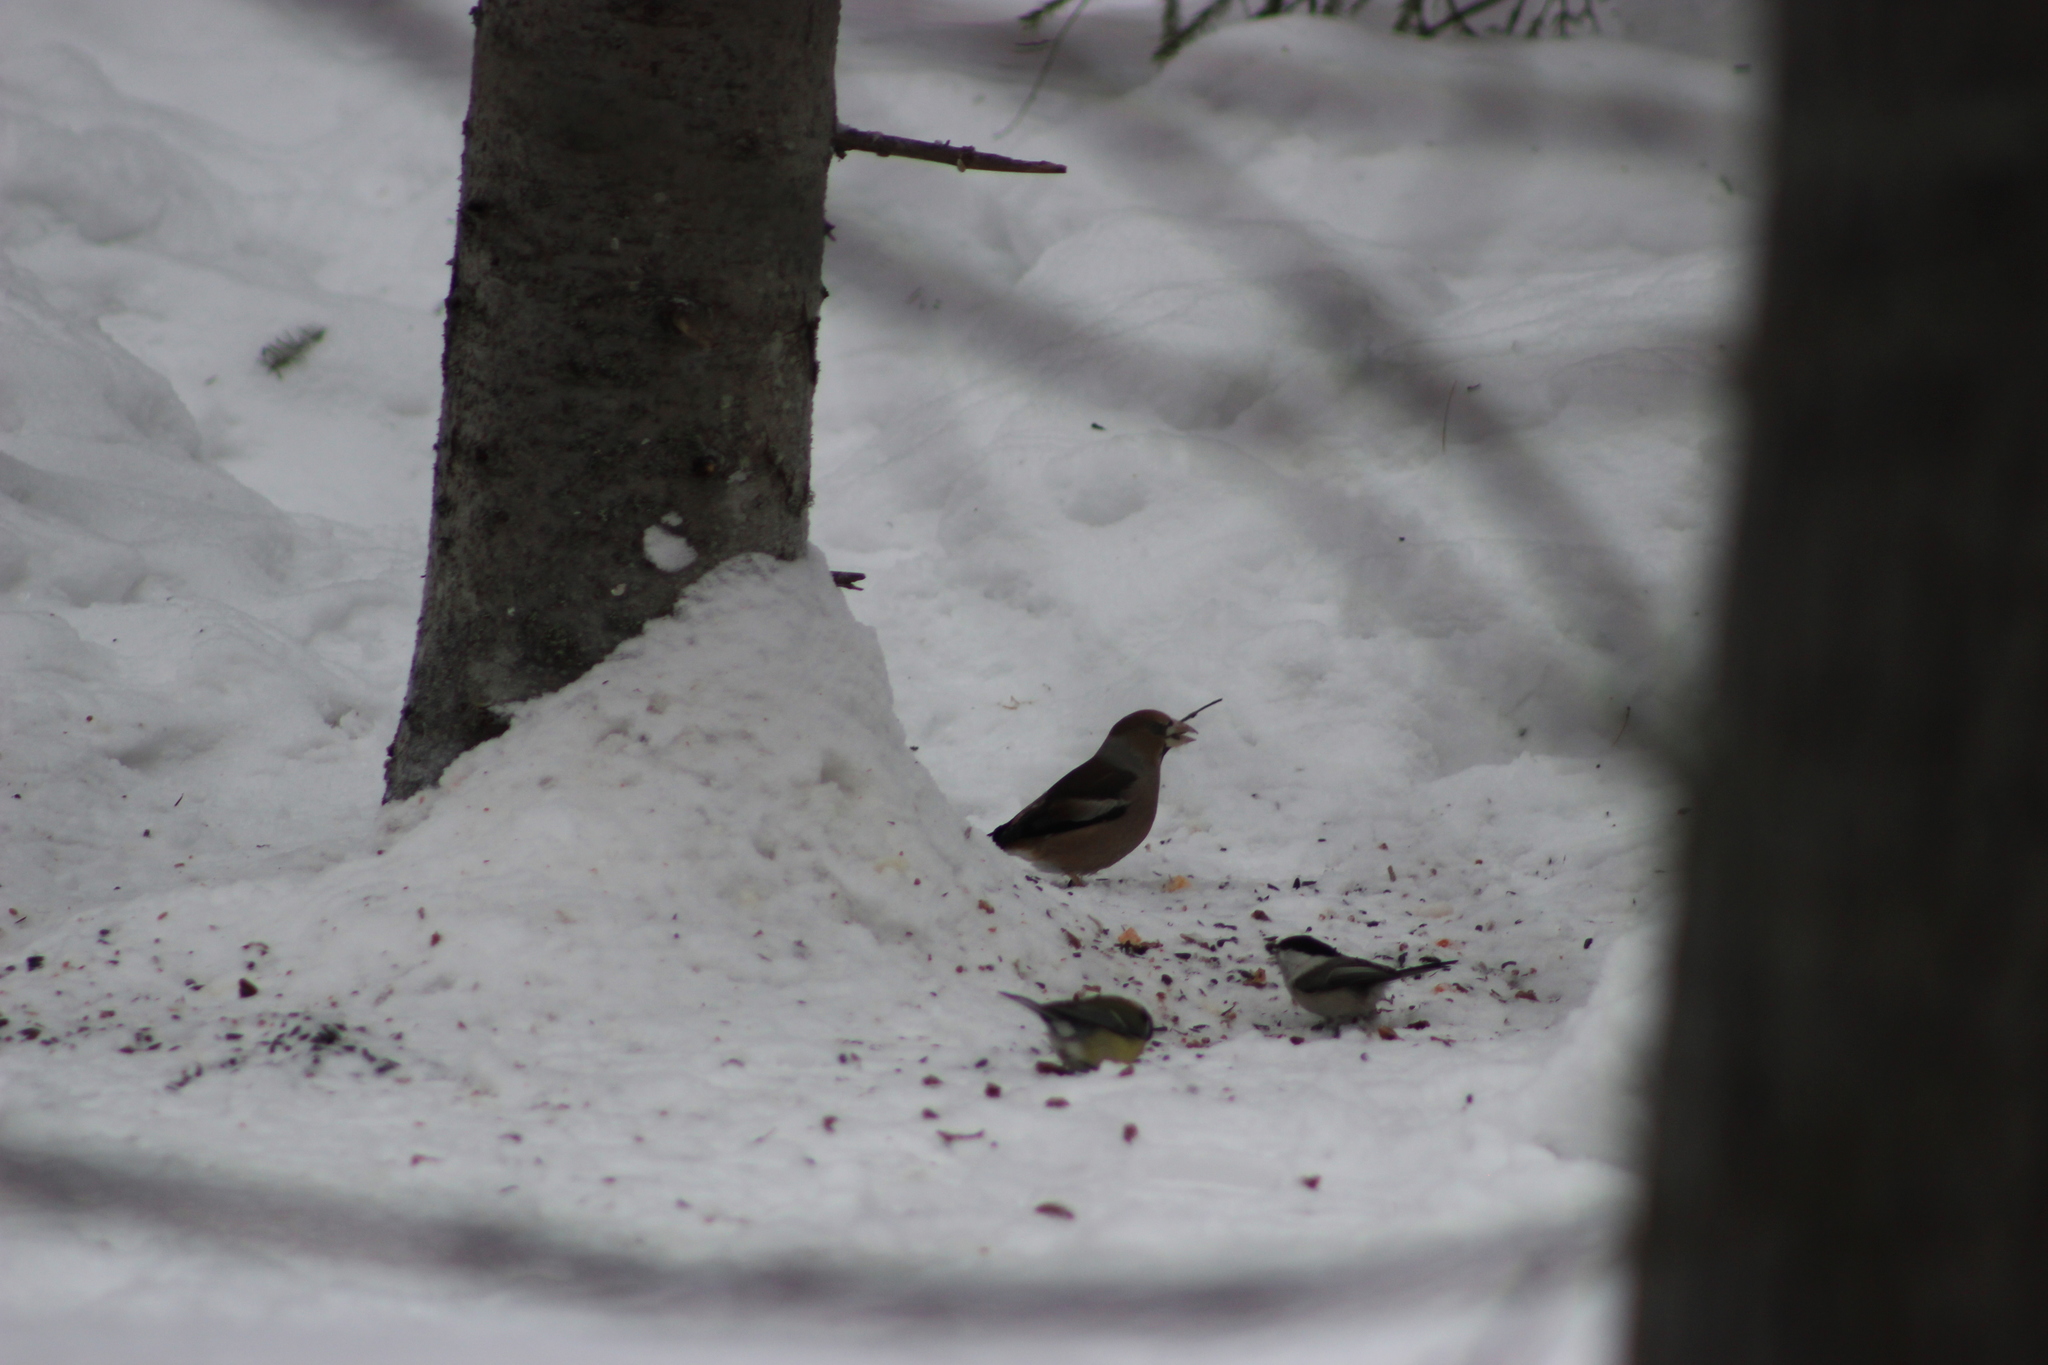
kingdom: Animalia
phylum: Chordata
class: Aves
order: Passeriformes
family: Fringillidae
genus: Coccothraustes
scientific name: Coccothraustes coccothraustes
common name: Hawfinch
